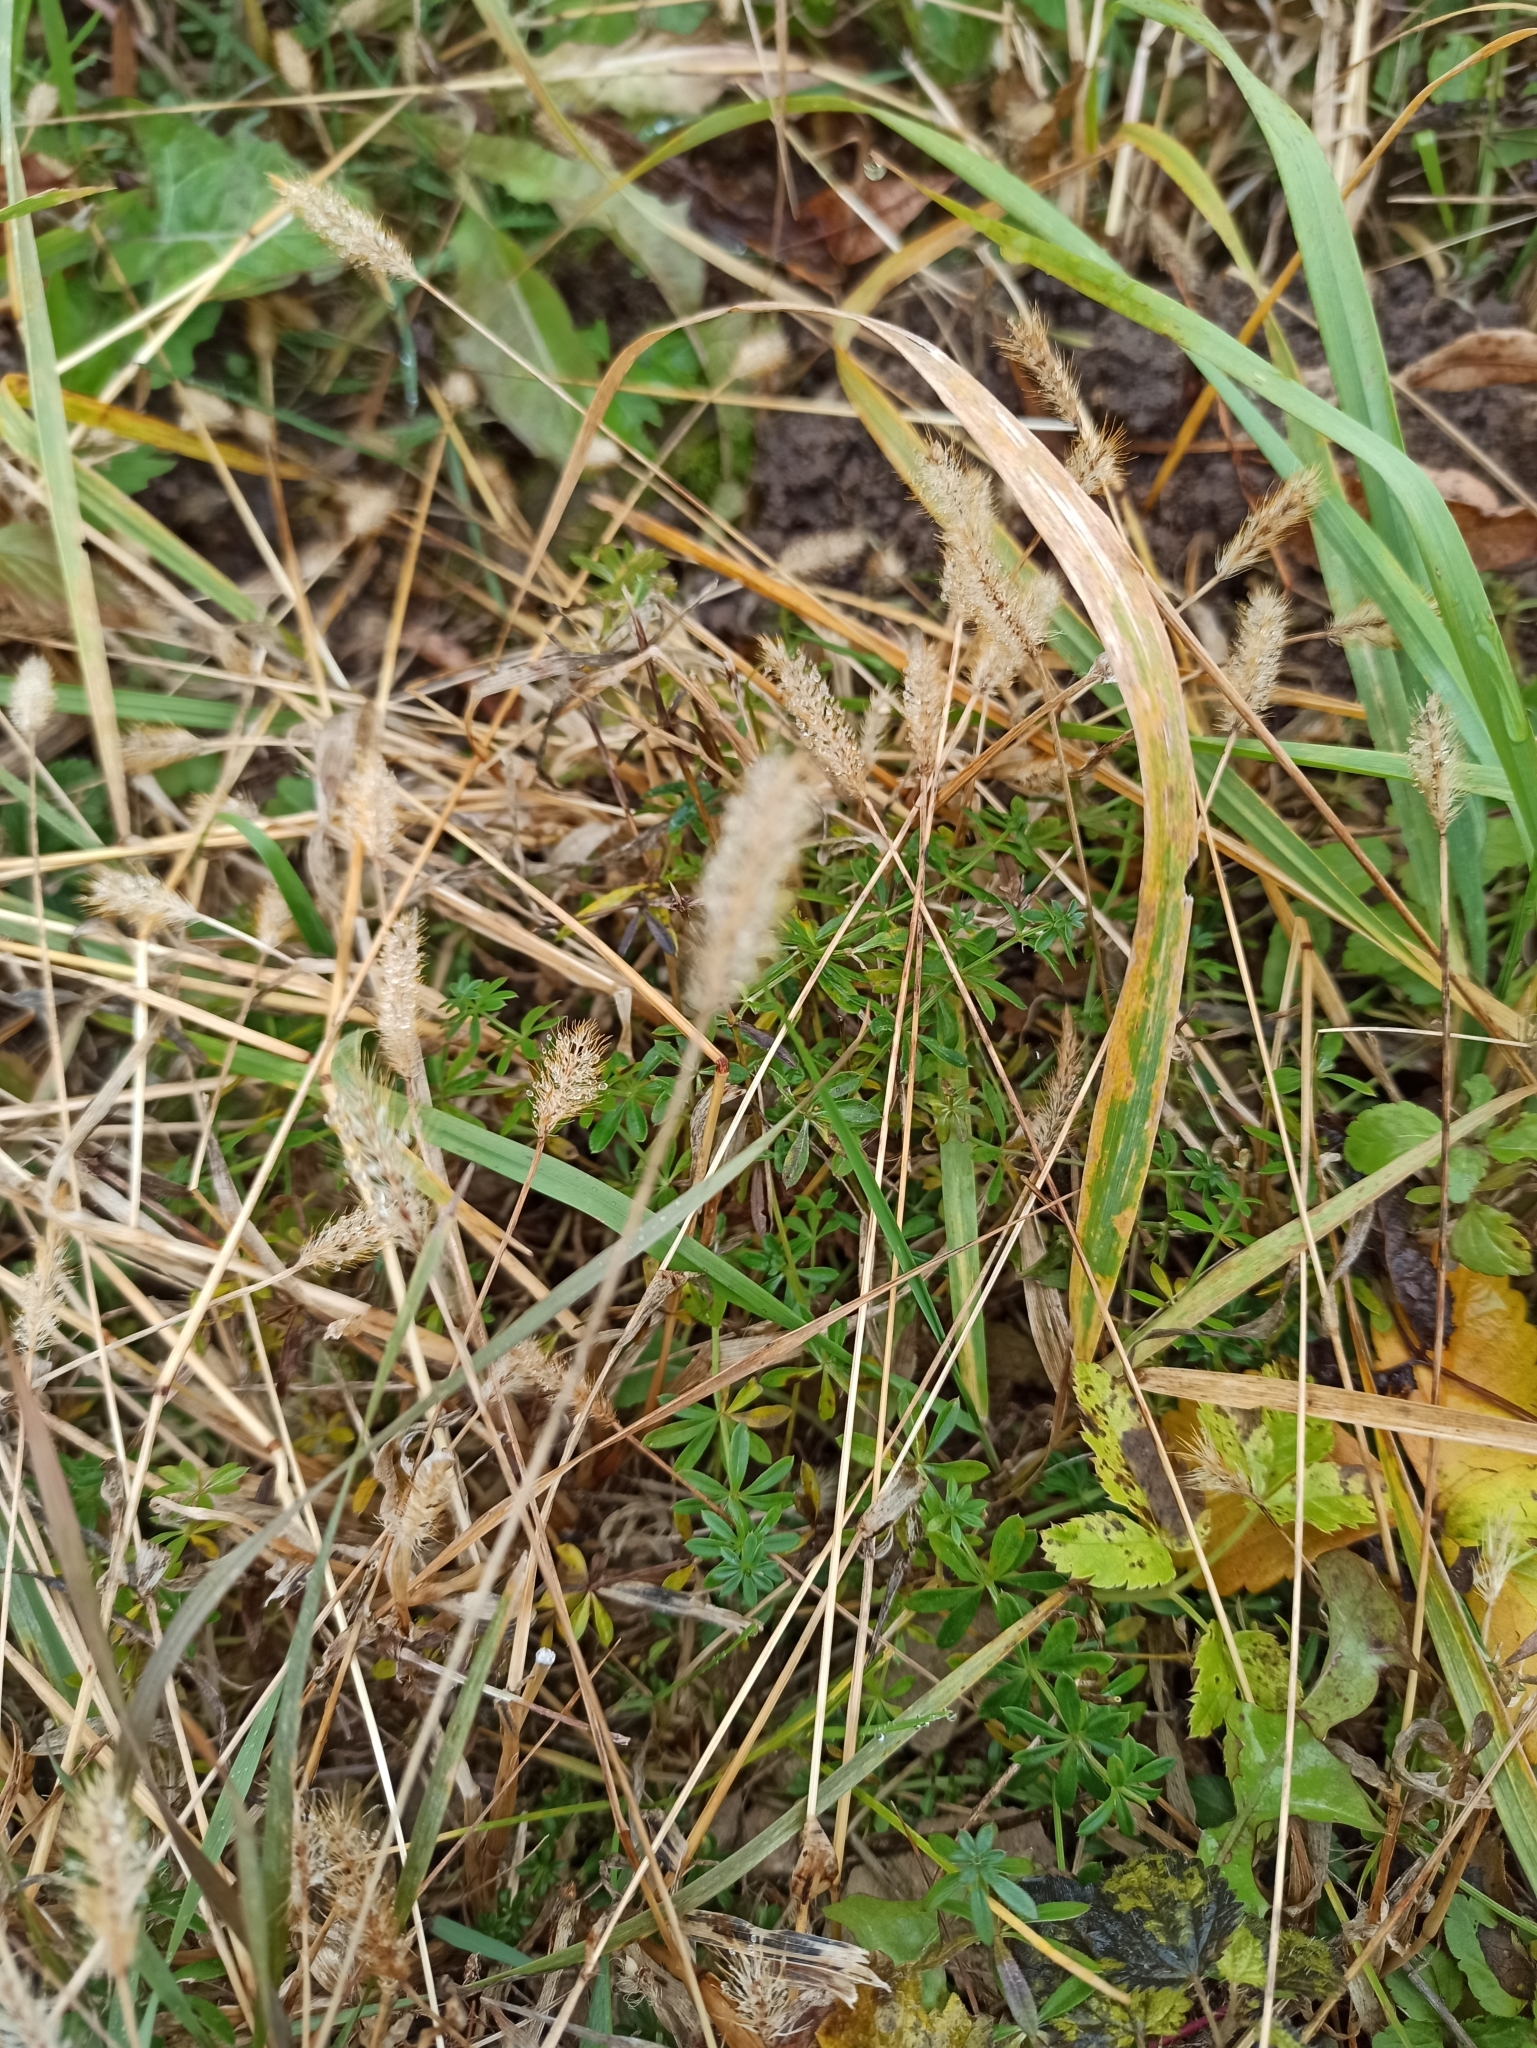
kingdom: Plantae
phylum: Tracheophyta
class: Liliopsida
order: Poales
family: Poaceae
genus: Setaria
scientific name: Setaria pumila
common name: Yellow bristle-grass
